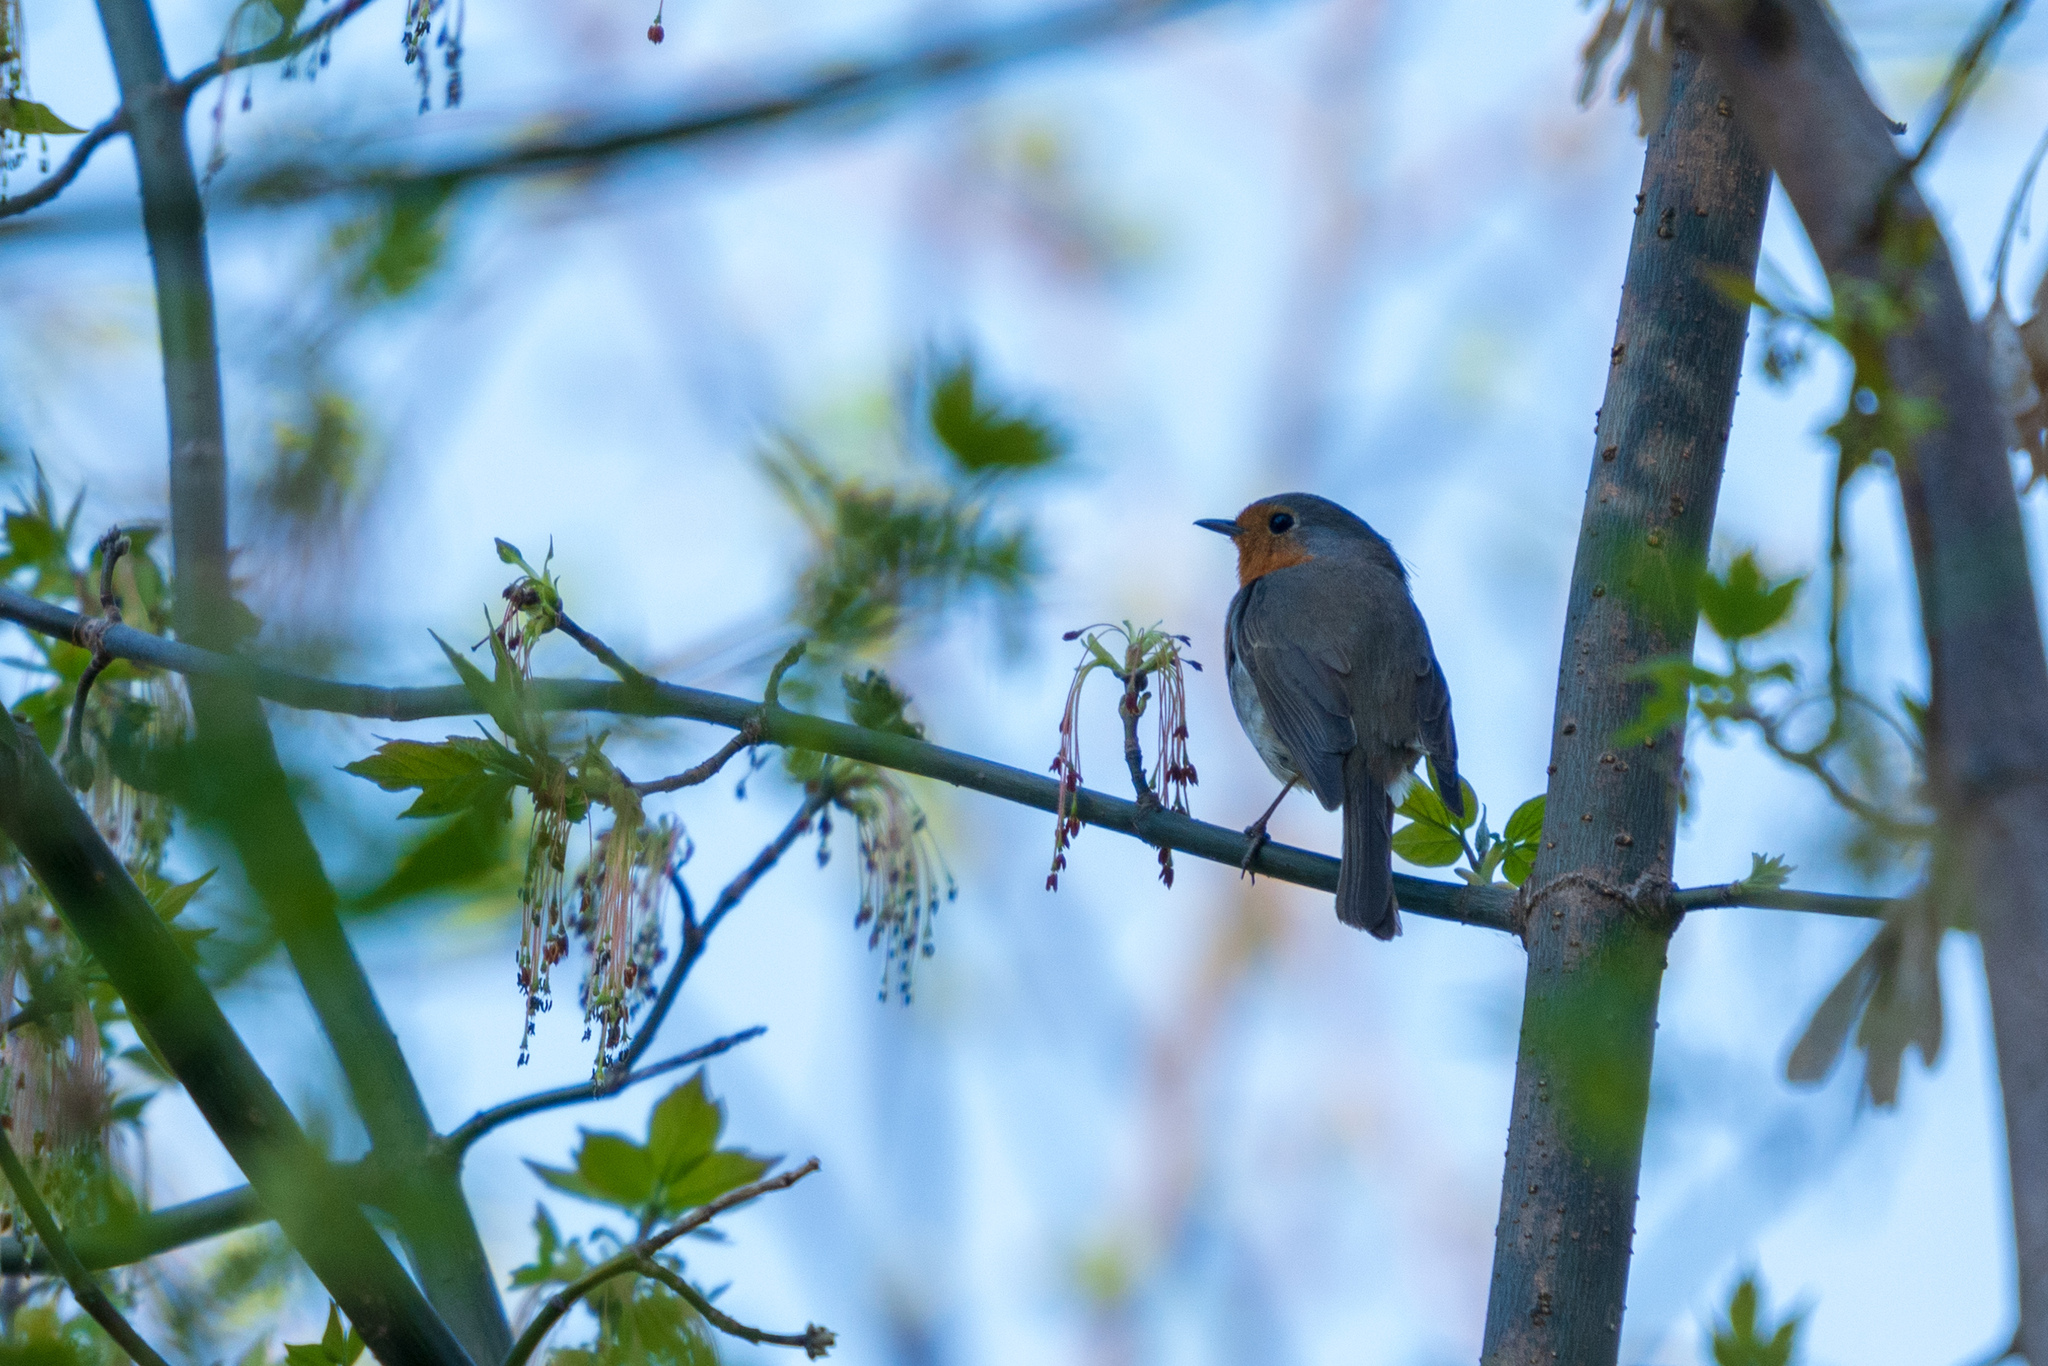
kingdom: Animalia
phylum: Chordata
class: Aves
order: Passeriformes
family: Muscicapidae
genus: Erithacus
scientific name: Erithacus rubecula
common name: European robin
